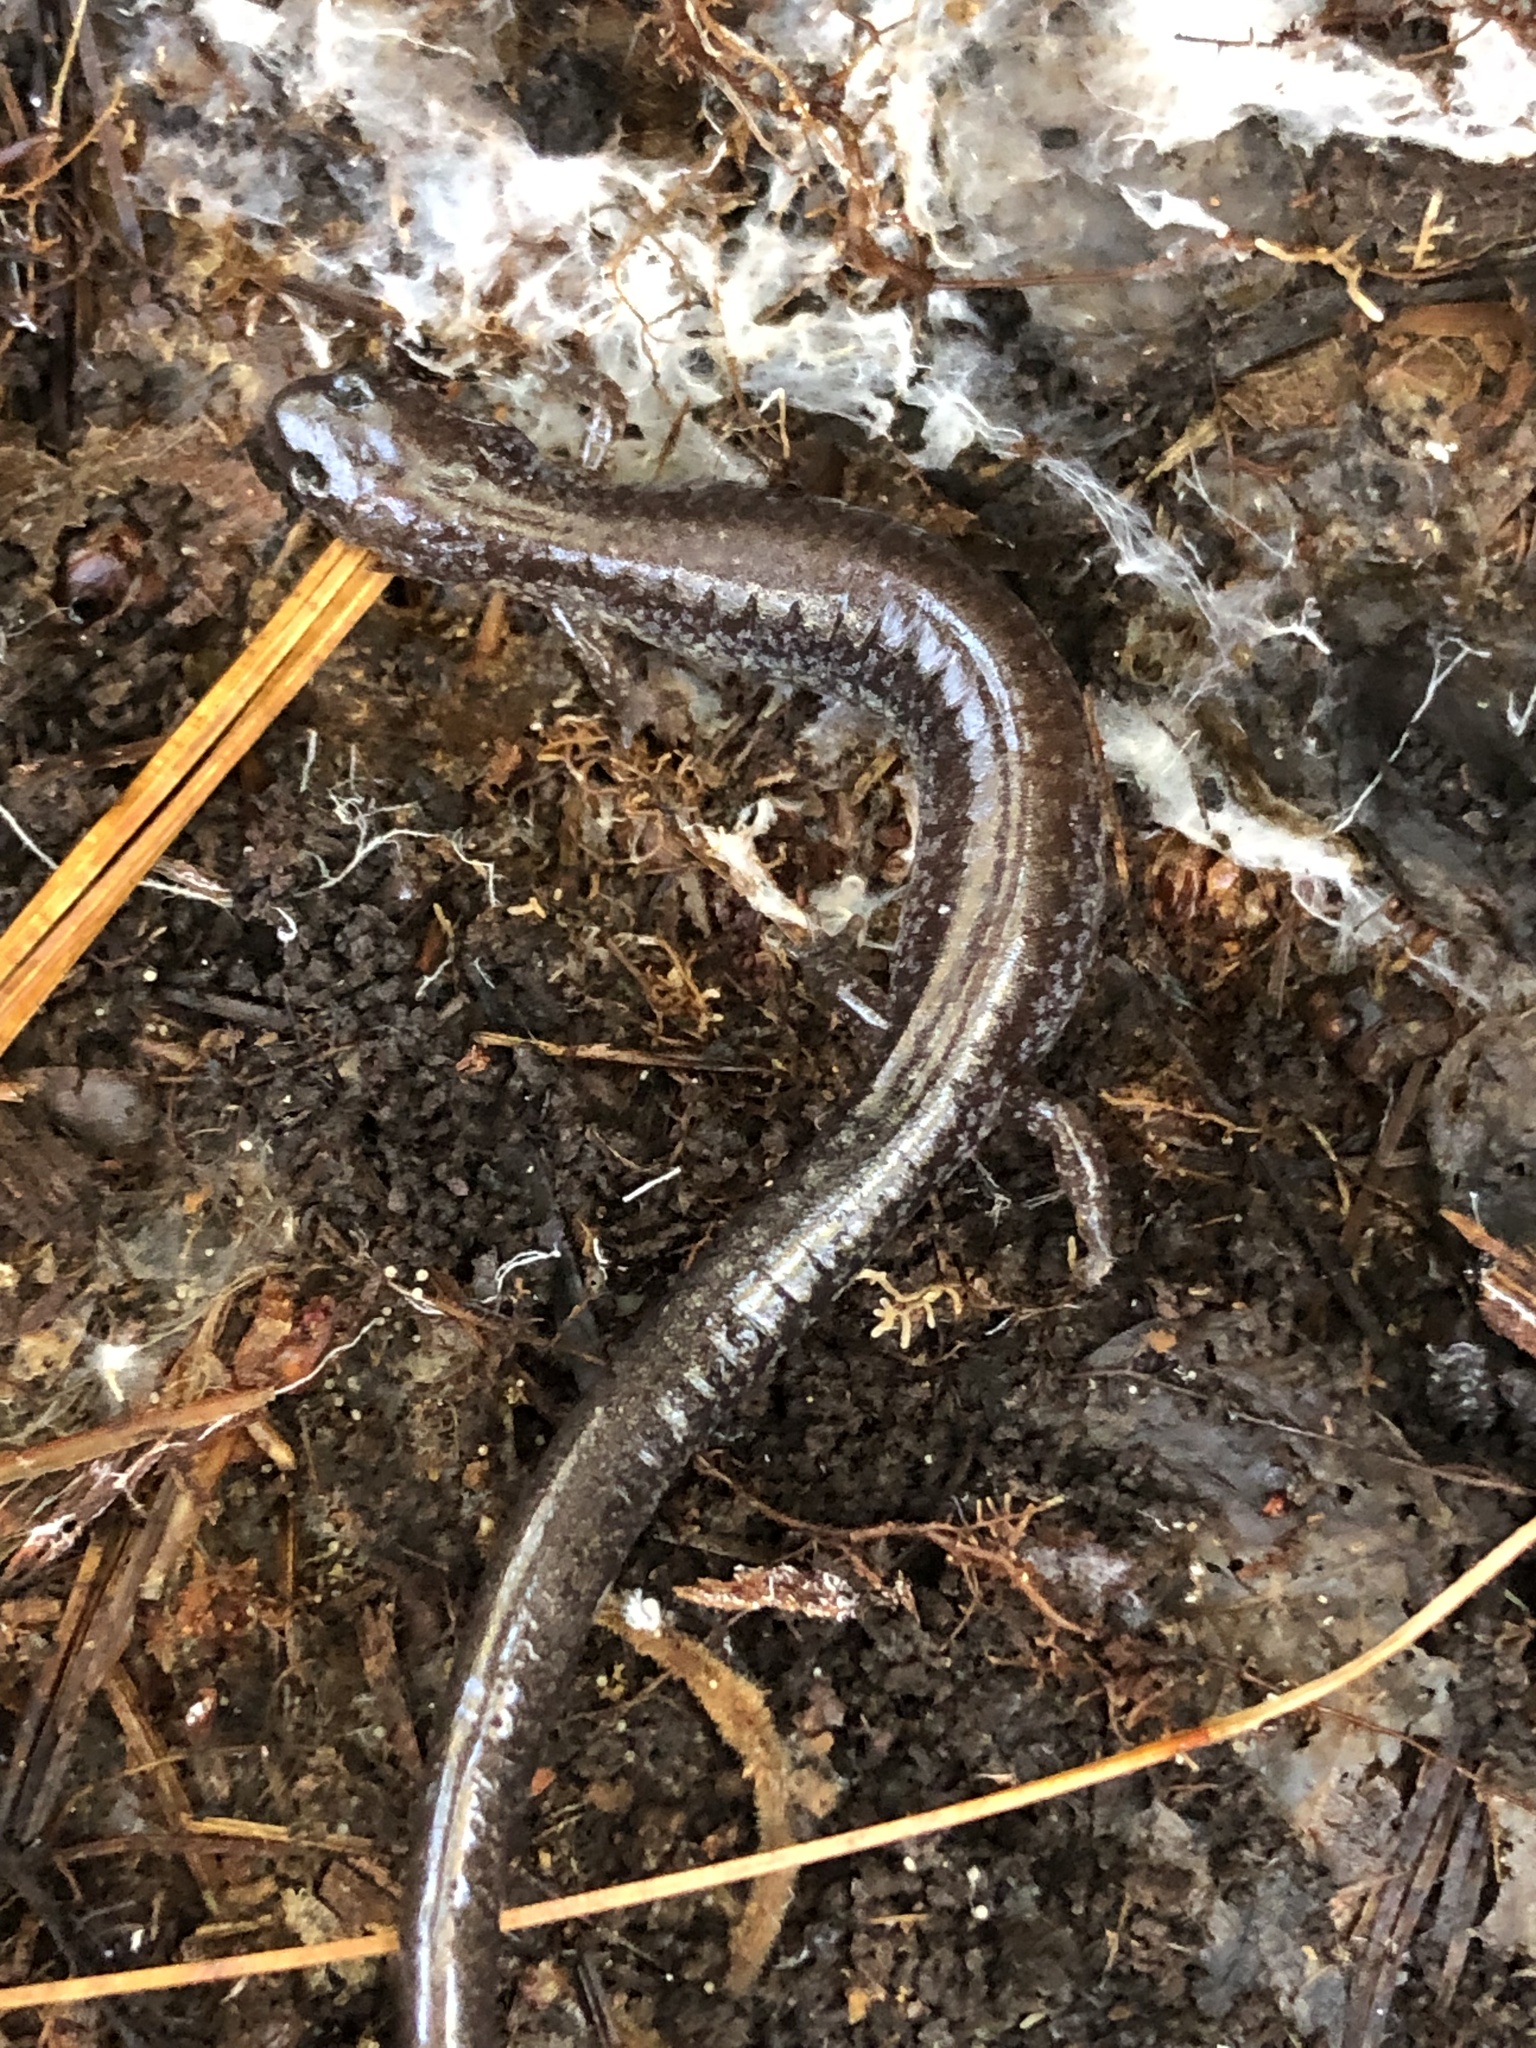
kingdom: Animalia
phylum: Chordata
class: Amphibia
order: Caudata
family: Plethodontidae
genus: Plethodon
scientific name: Plethodon cinereus
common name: Redback salamander
